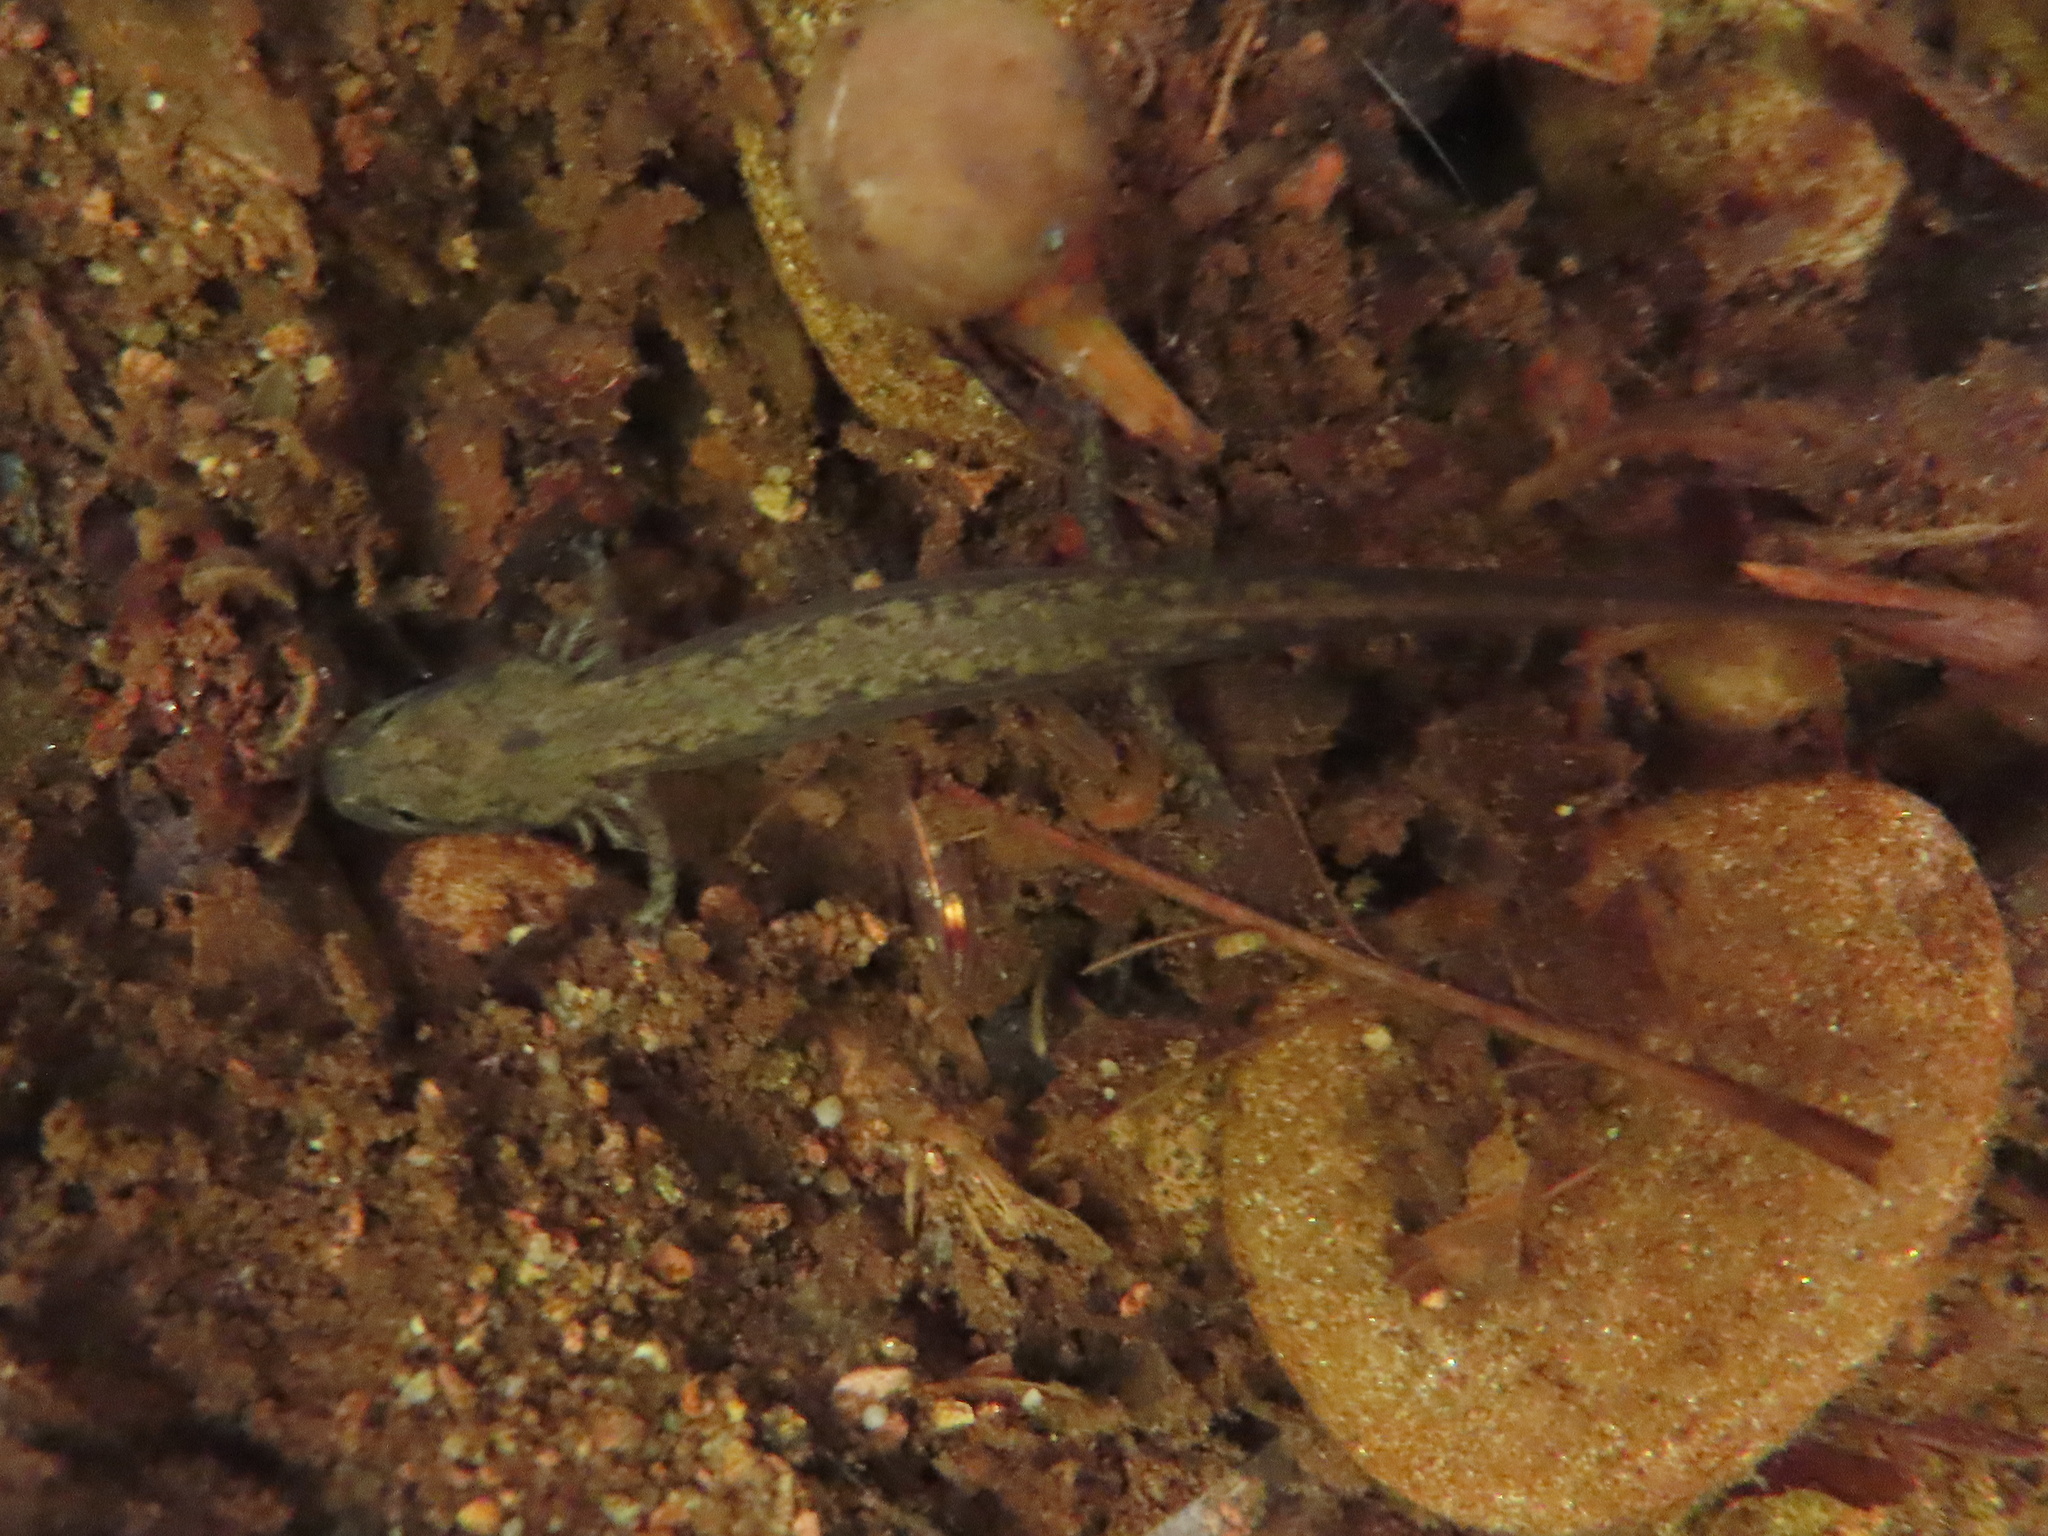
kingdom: Animalia
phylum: Chordata
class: Amphibia
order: Caudata
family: Plethodontidae
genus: Eurycea
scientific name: Eurycea bislineata
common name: Northern two-lined salamander
